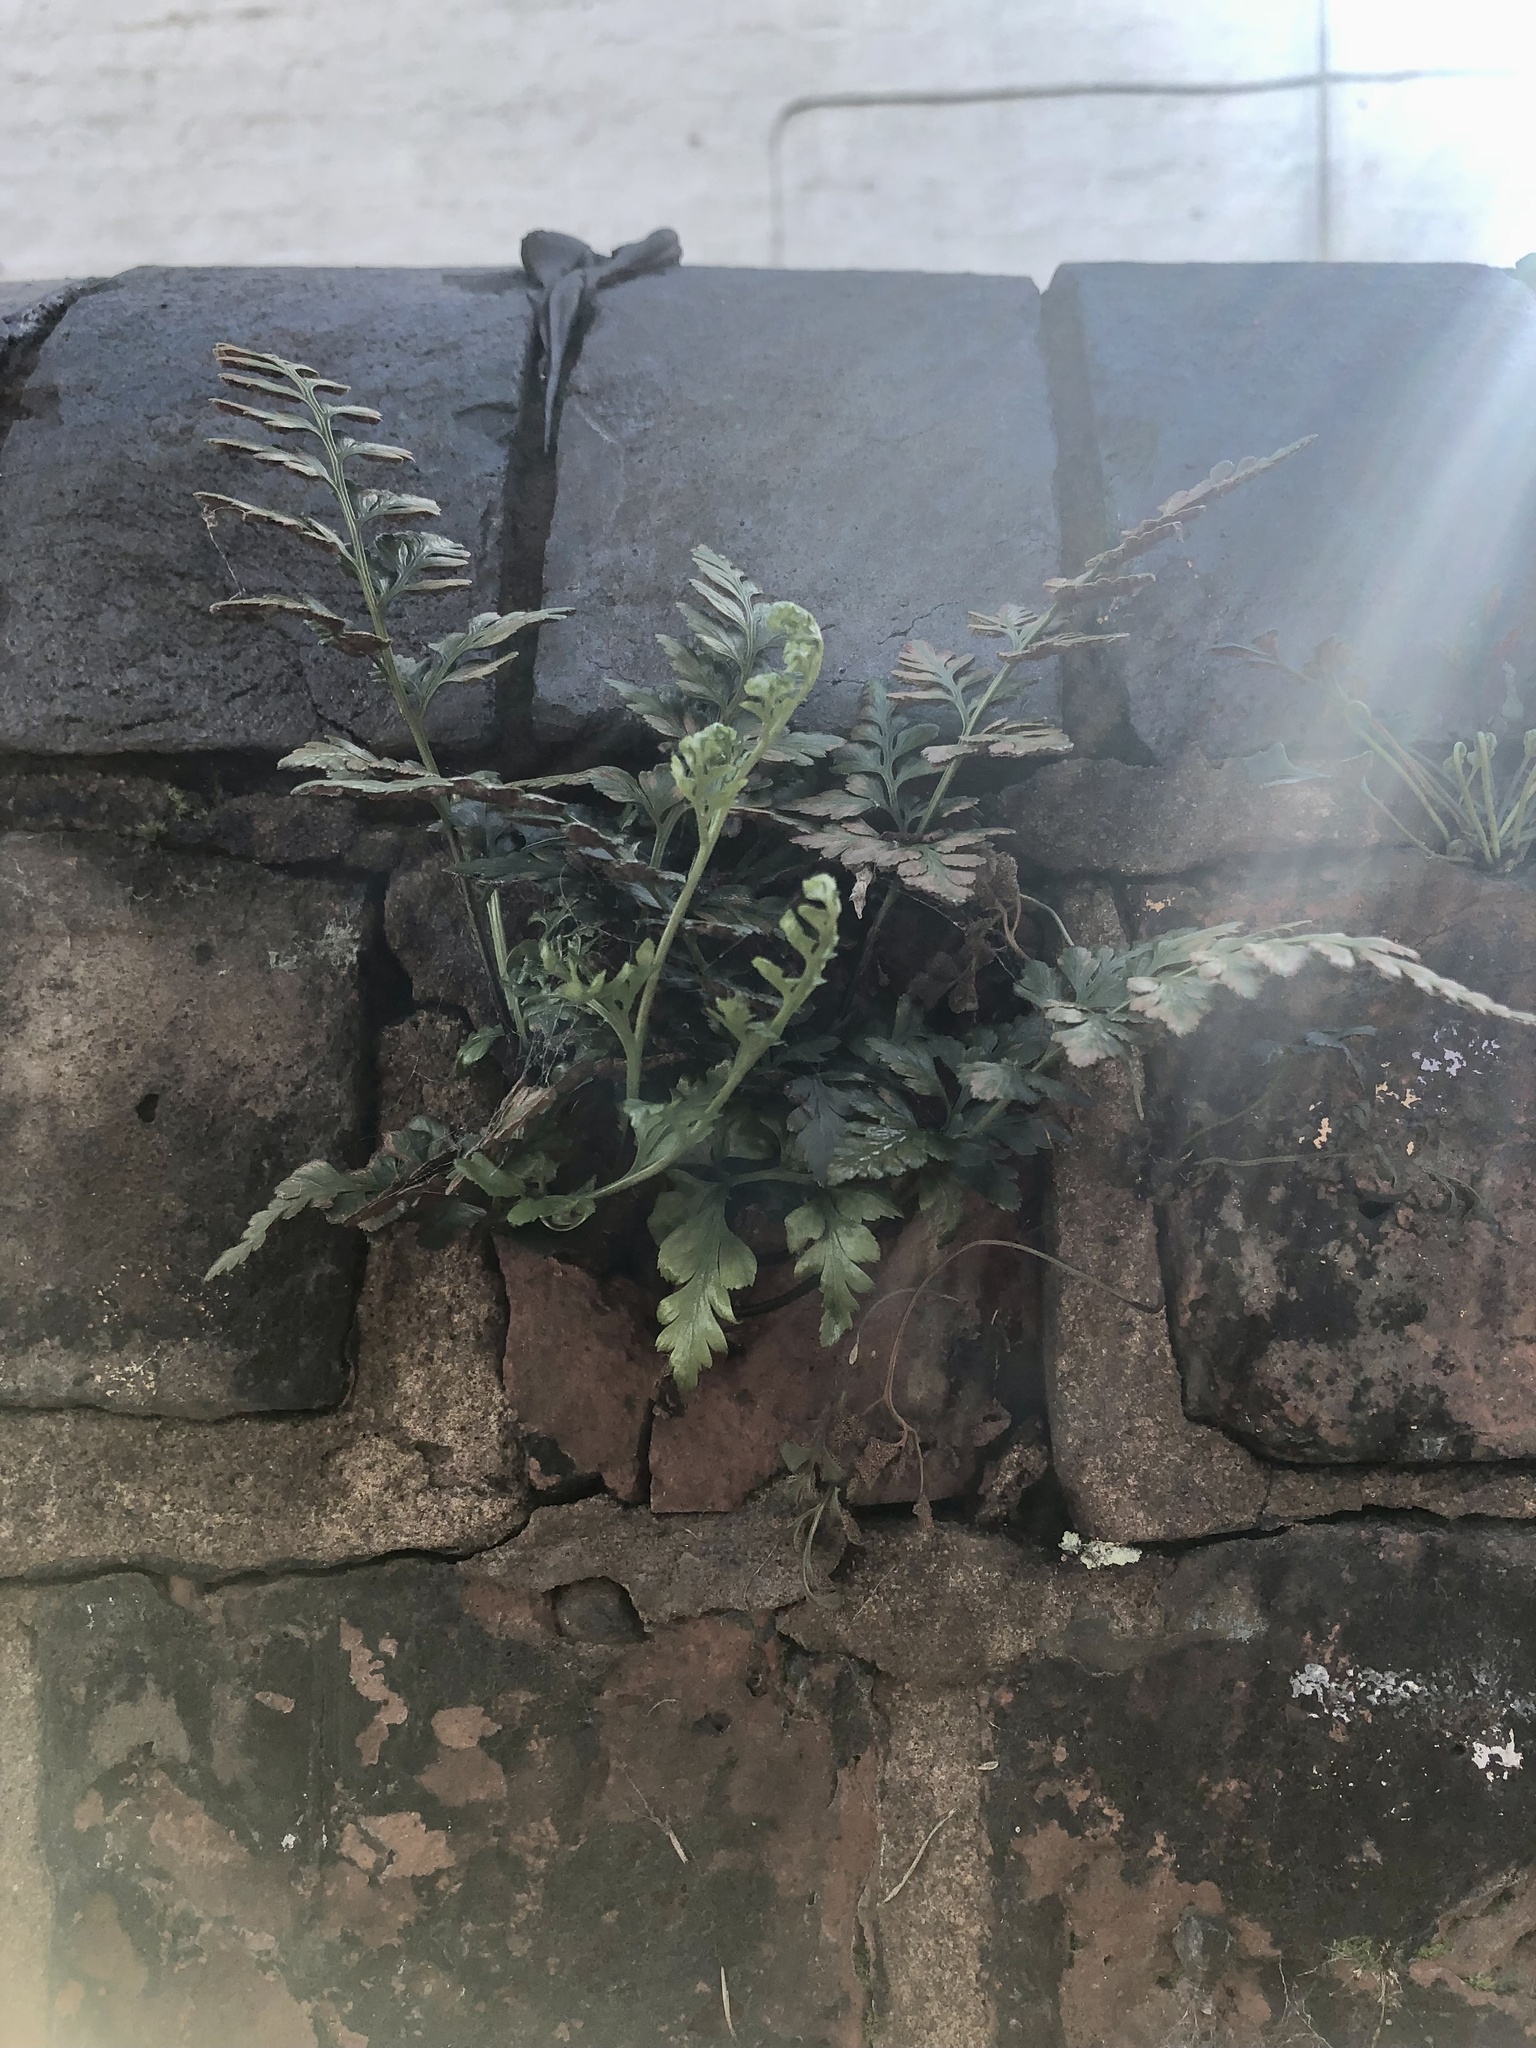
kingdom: Plantae
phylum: Tracheophyta
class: Polypodiopsida
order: Polypodiales
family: Aspleniaceae
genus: Asplenium
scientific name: Asplenium adiantum-nigrum
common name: Black spleenwort
